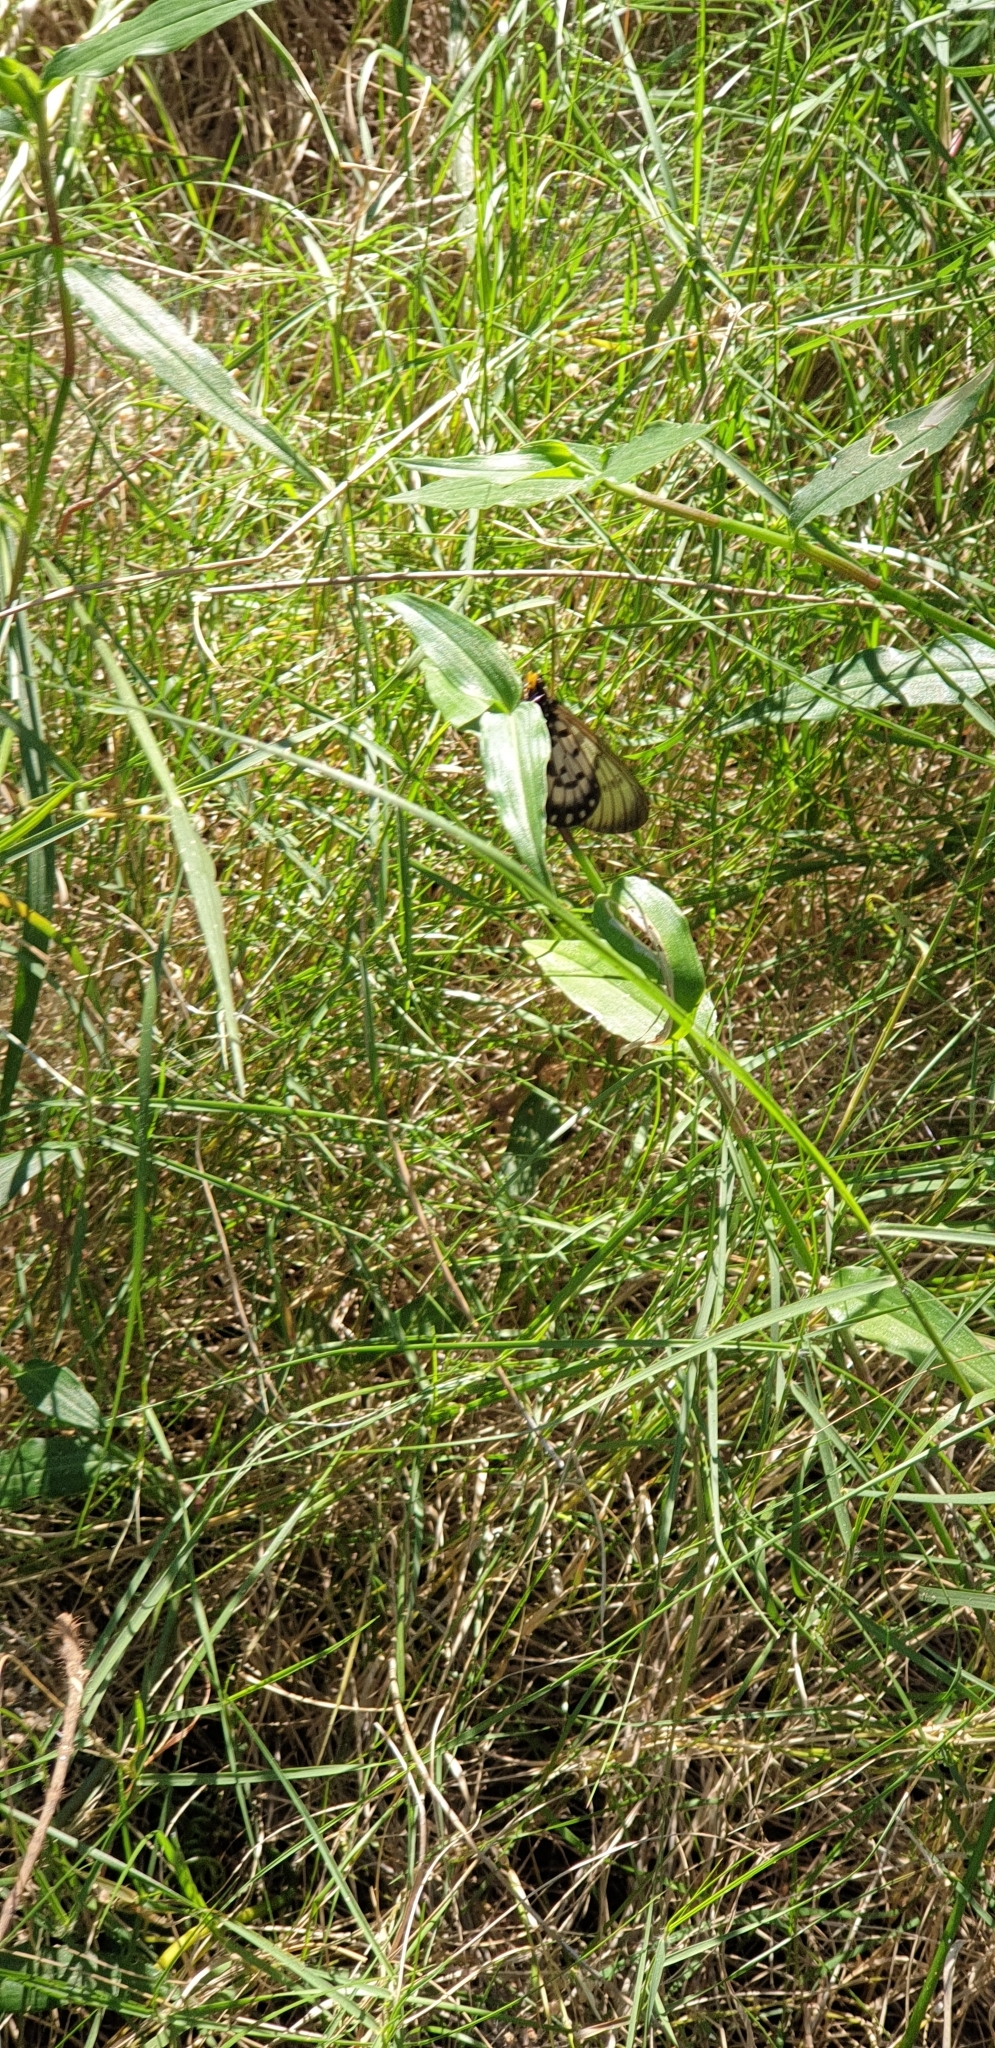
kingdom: Animalia
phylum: Arthropoda
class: Insecta
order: Lepidoptera
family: Nymphalidae
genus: Acraea
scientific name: Acraea andromacha
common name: Glasswing
